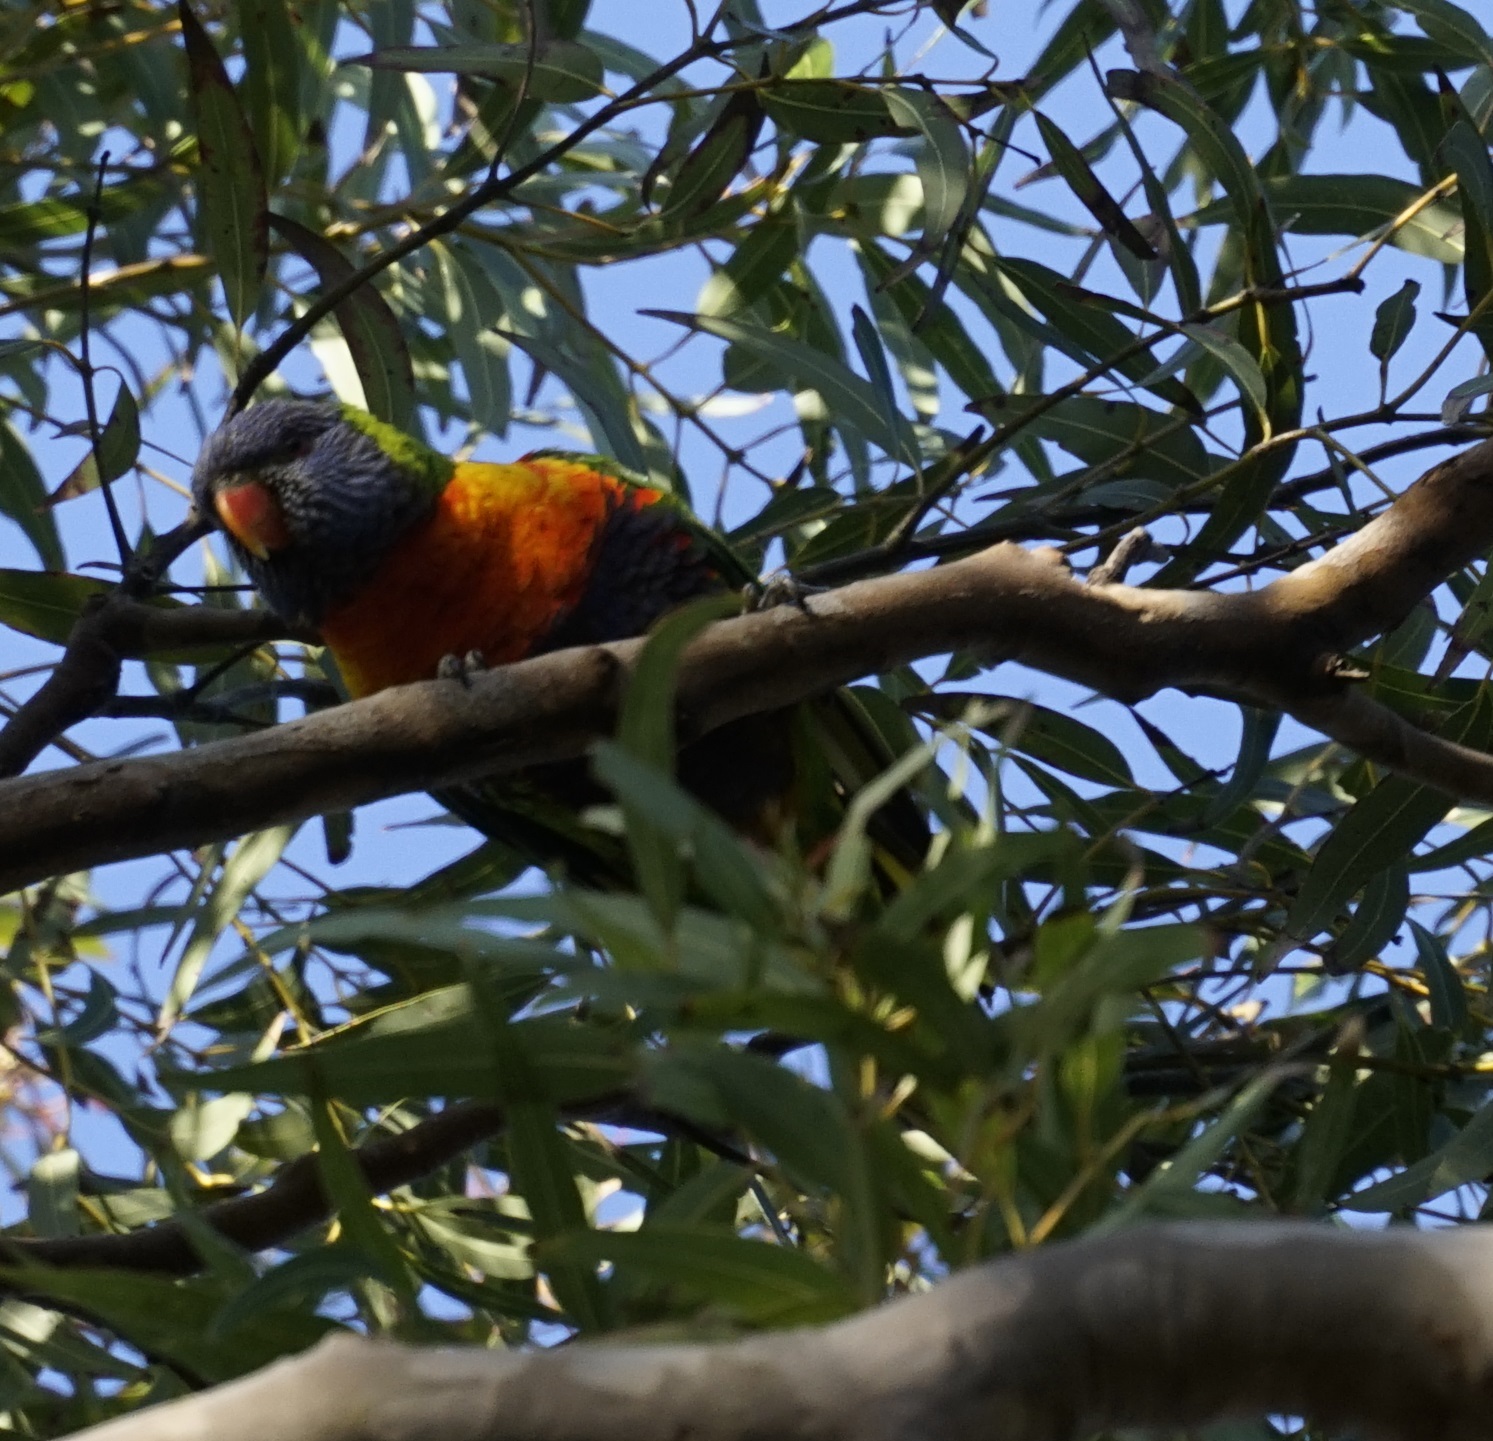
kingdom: Animalia
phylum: Chordata
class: Aves
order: Psittaciformes
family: Psittacidae
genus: Trichoglossus
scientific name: Trichoglossus haematodus
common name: Coconut lorikeet
